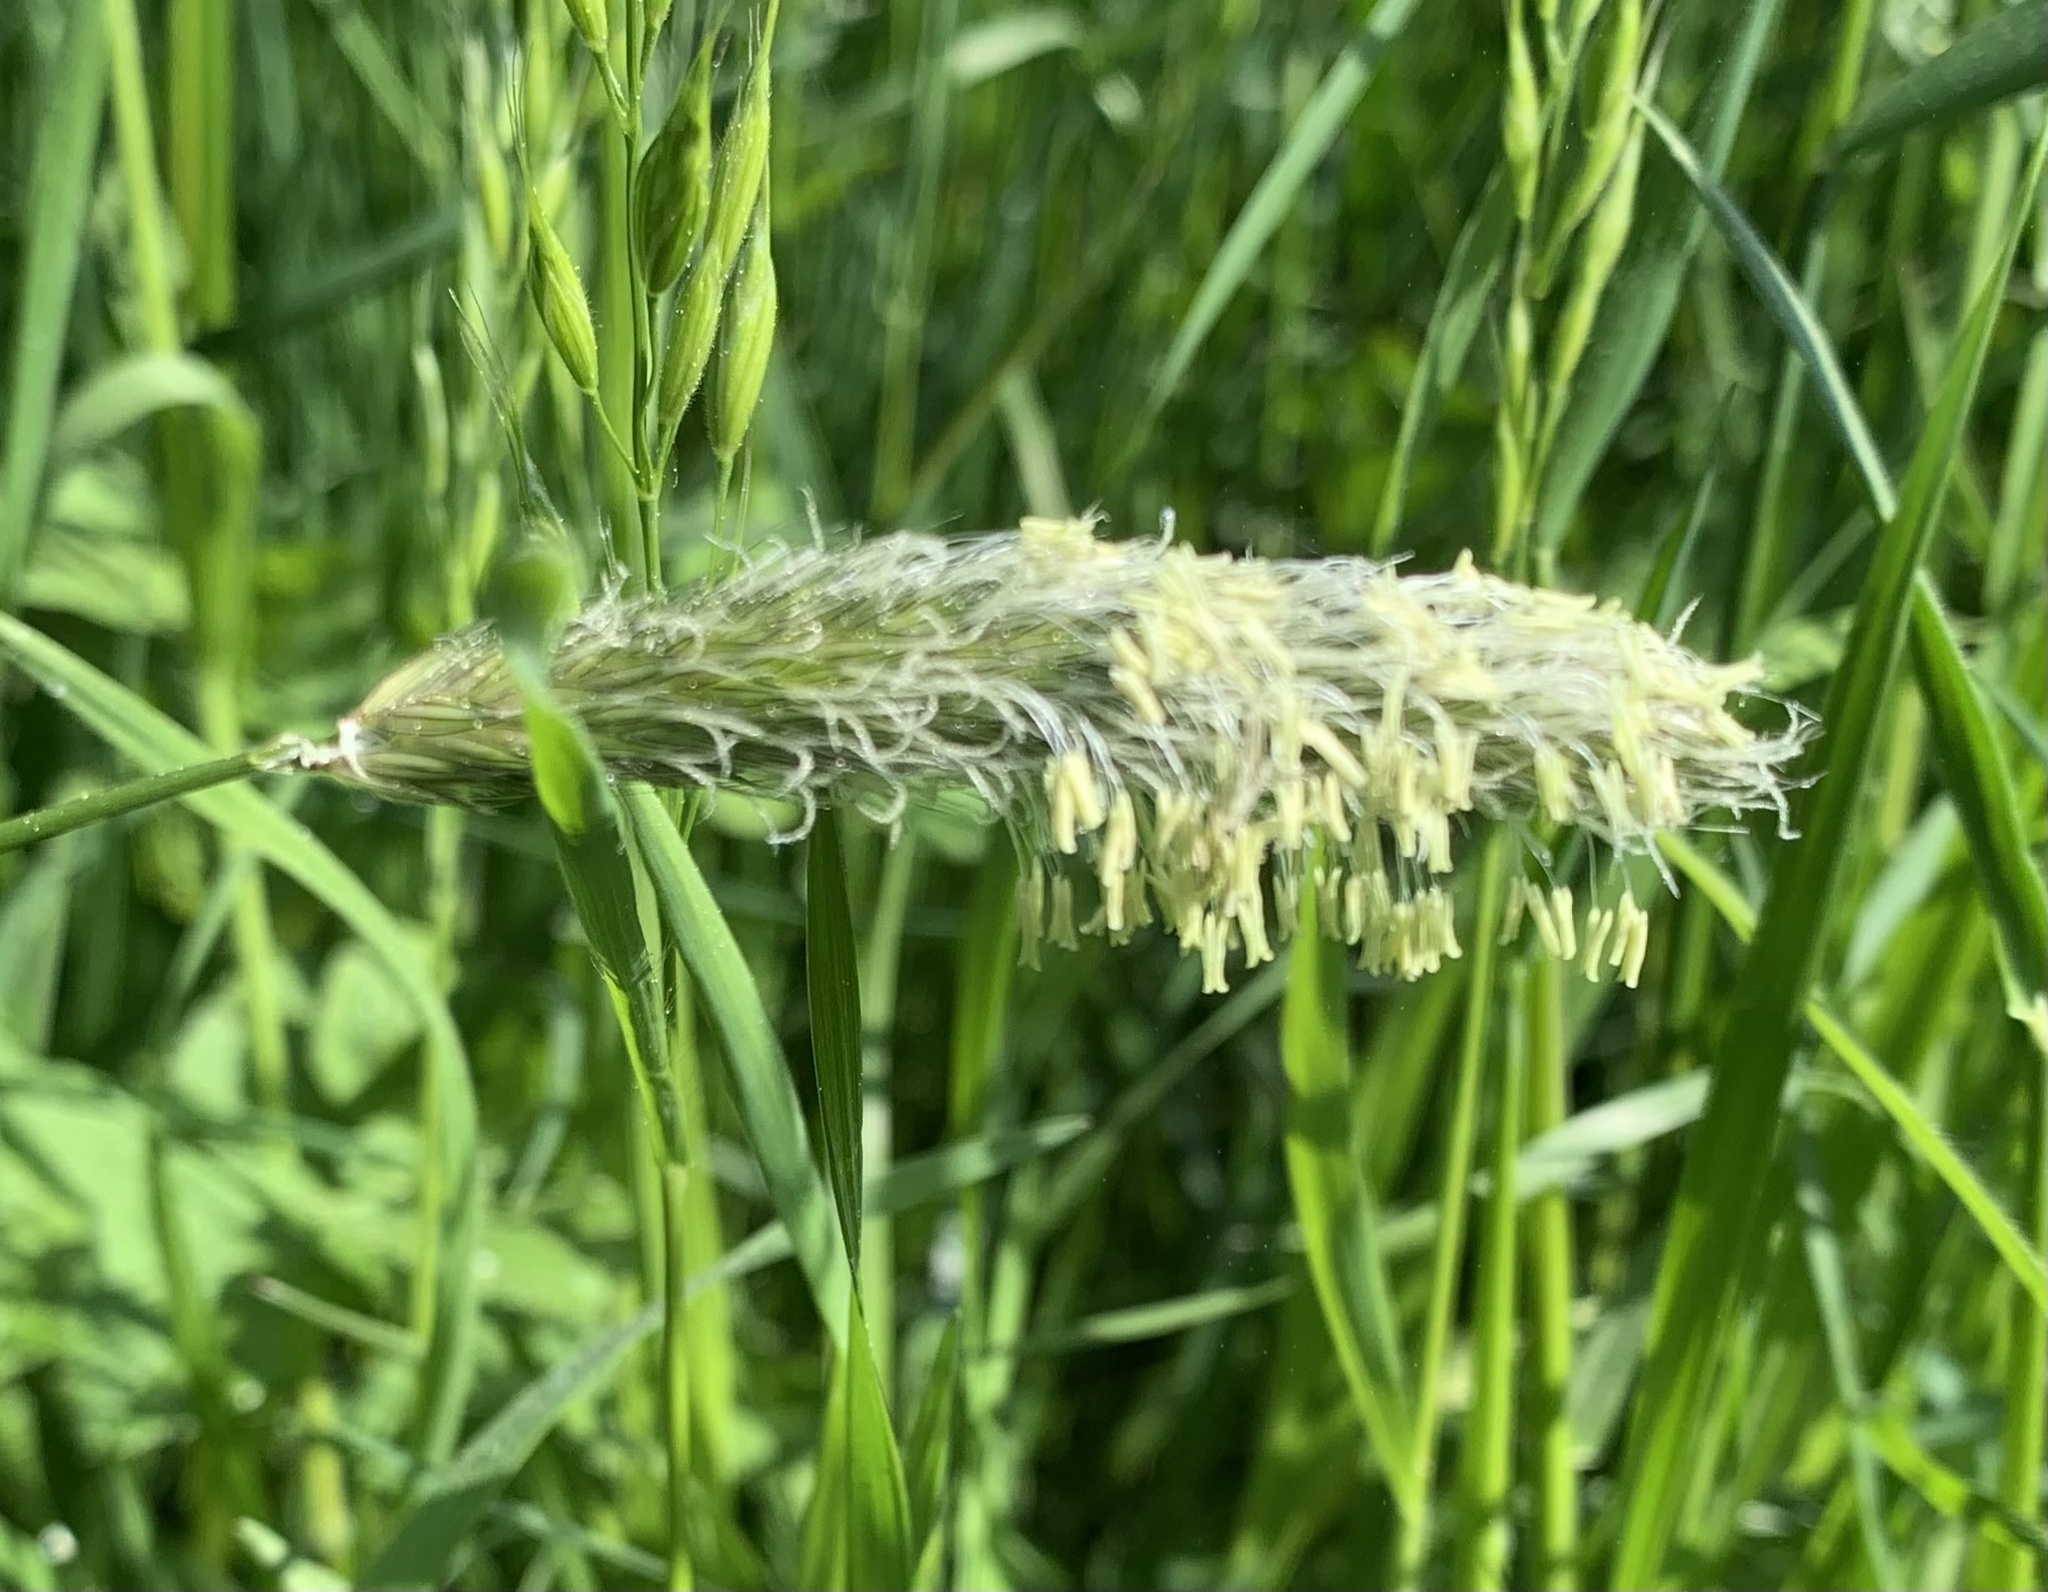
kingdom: Plantae
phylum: Tracheophyta
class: Liliopsida
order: Poales
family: Poaceae
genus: Alopecurus
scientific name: Alopecurus pratensis
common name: Meadow foxtail
